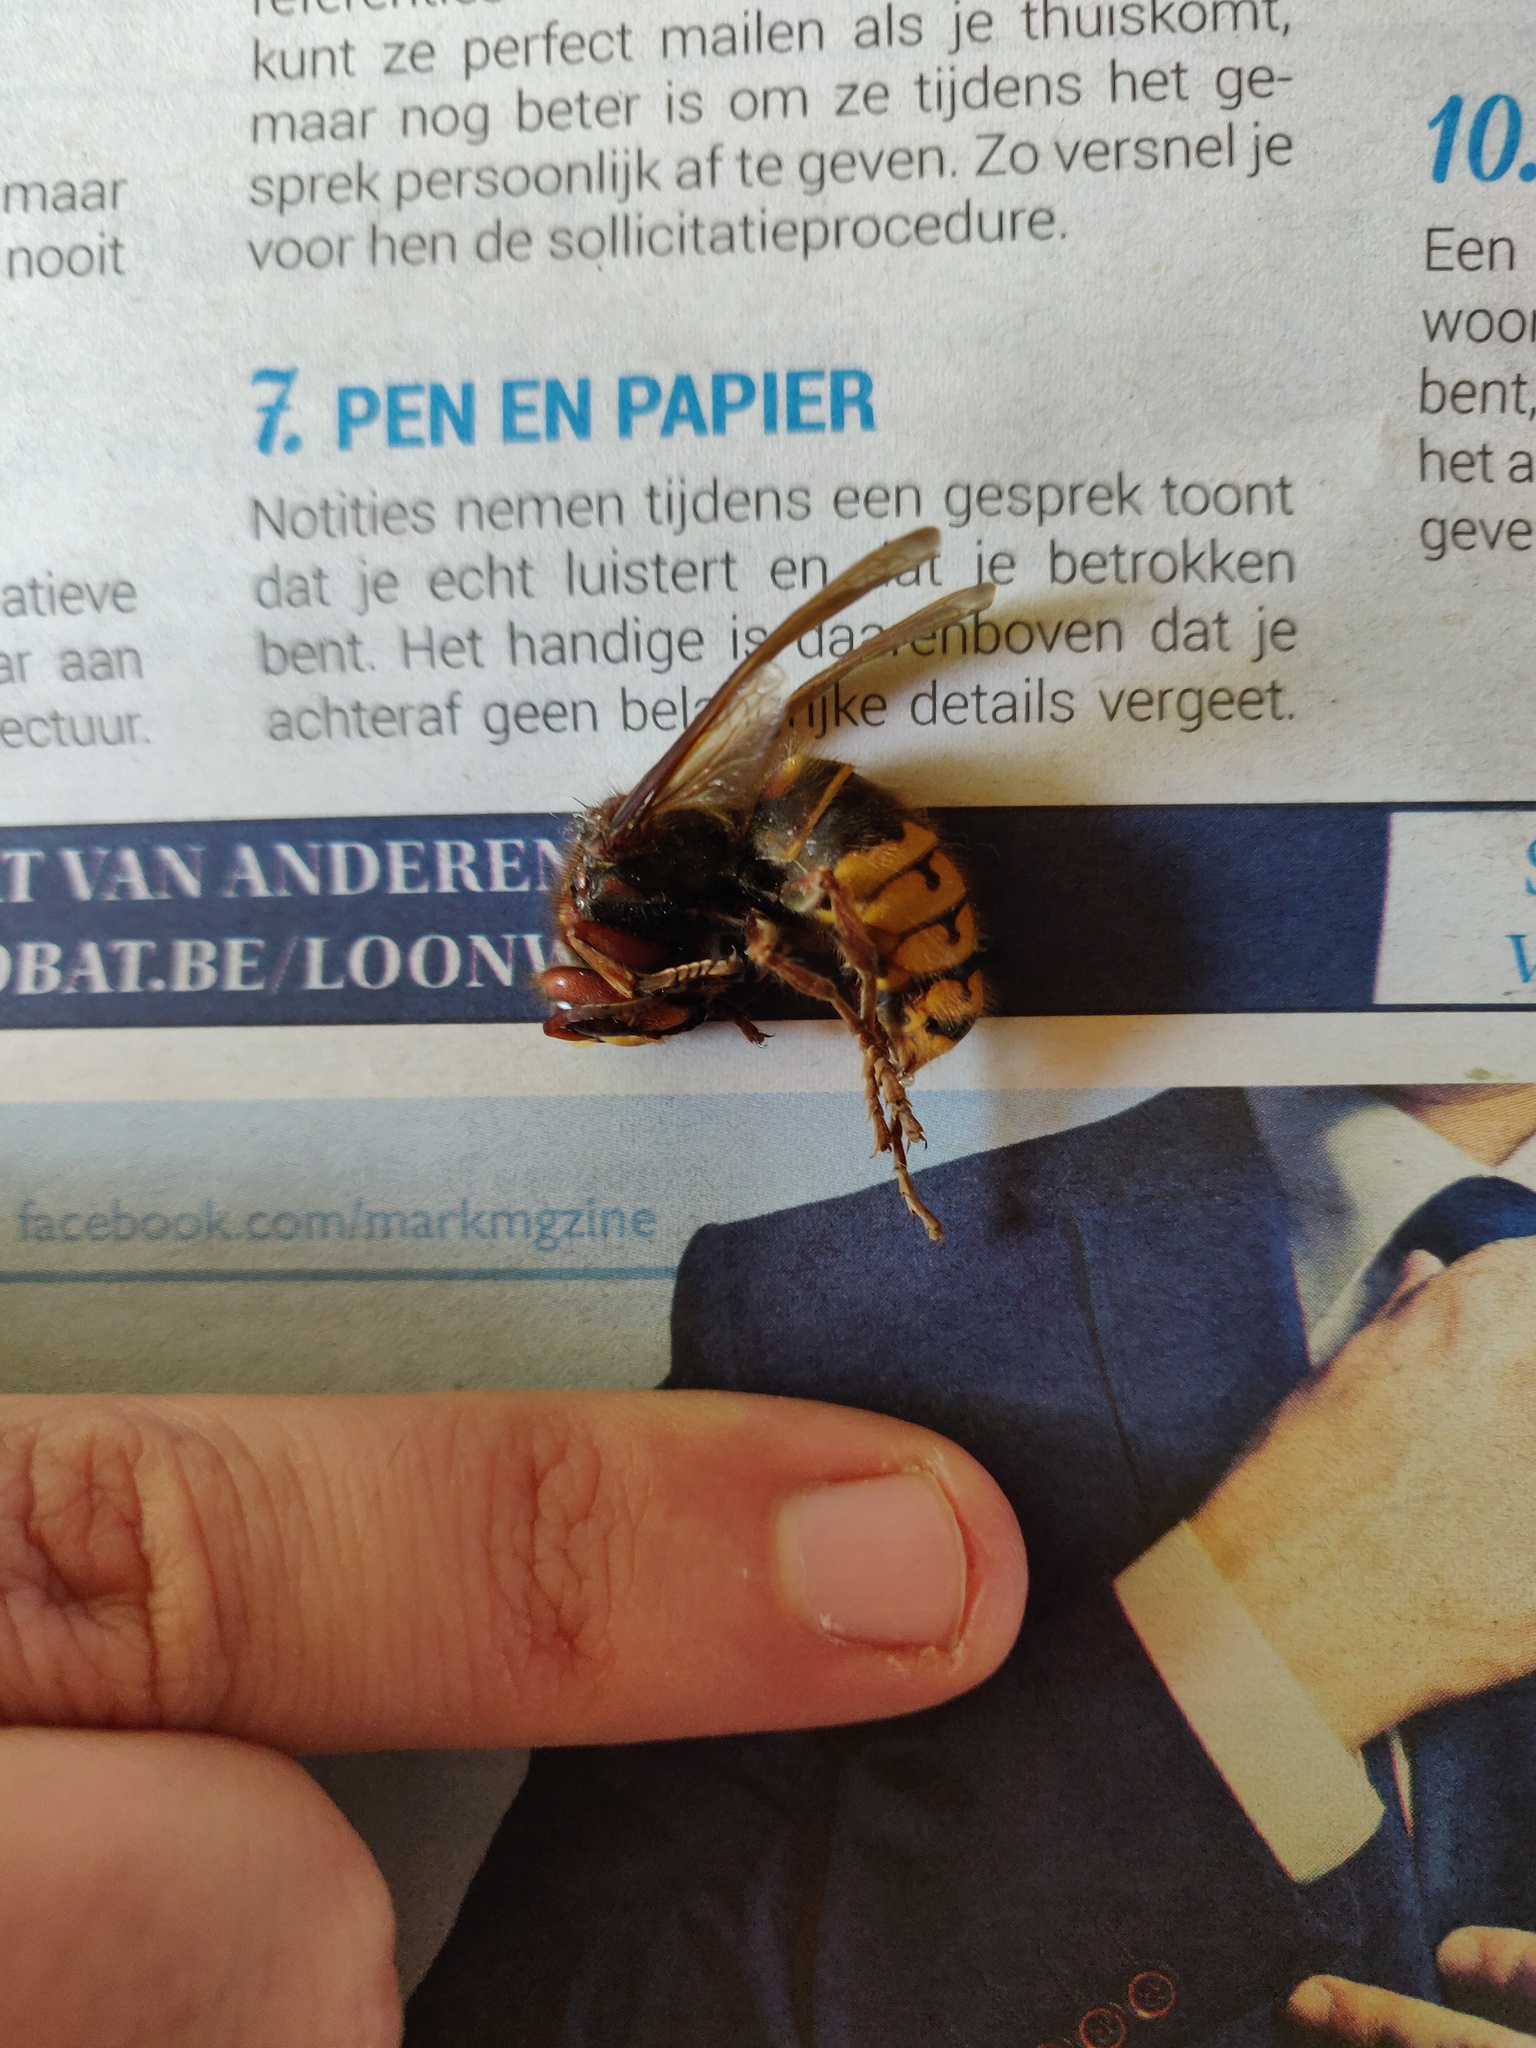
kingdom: Animalia
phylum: Arthropoda
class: Insecta
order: Hymenoptera
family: Vespidae
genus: Vespa
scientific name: Vespa crabro
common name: Hornet
